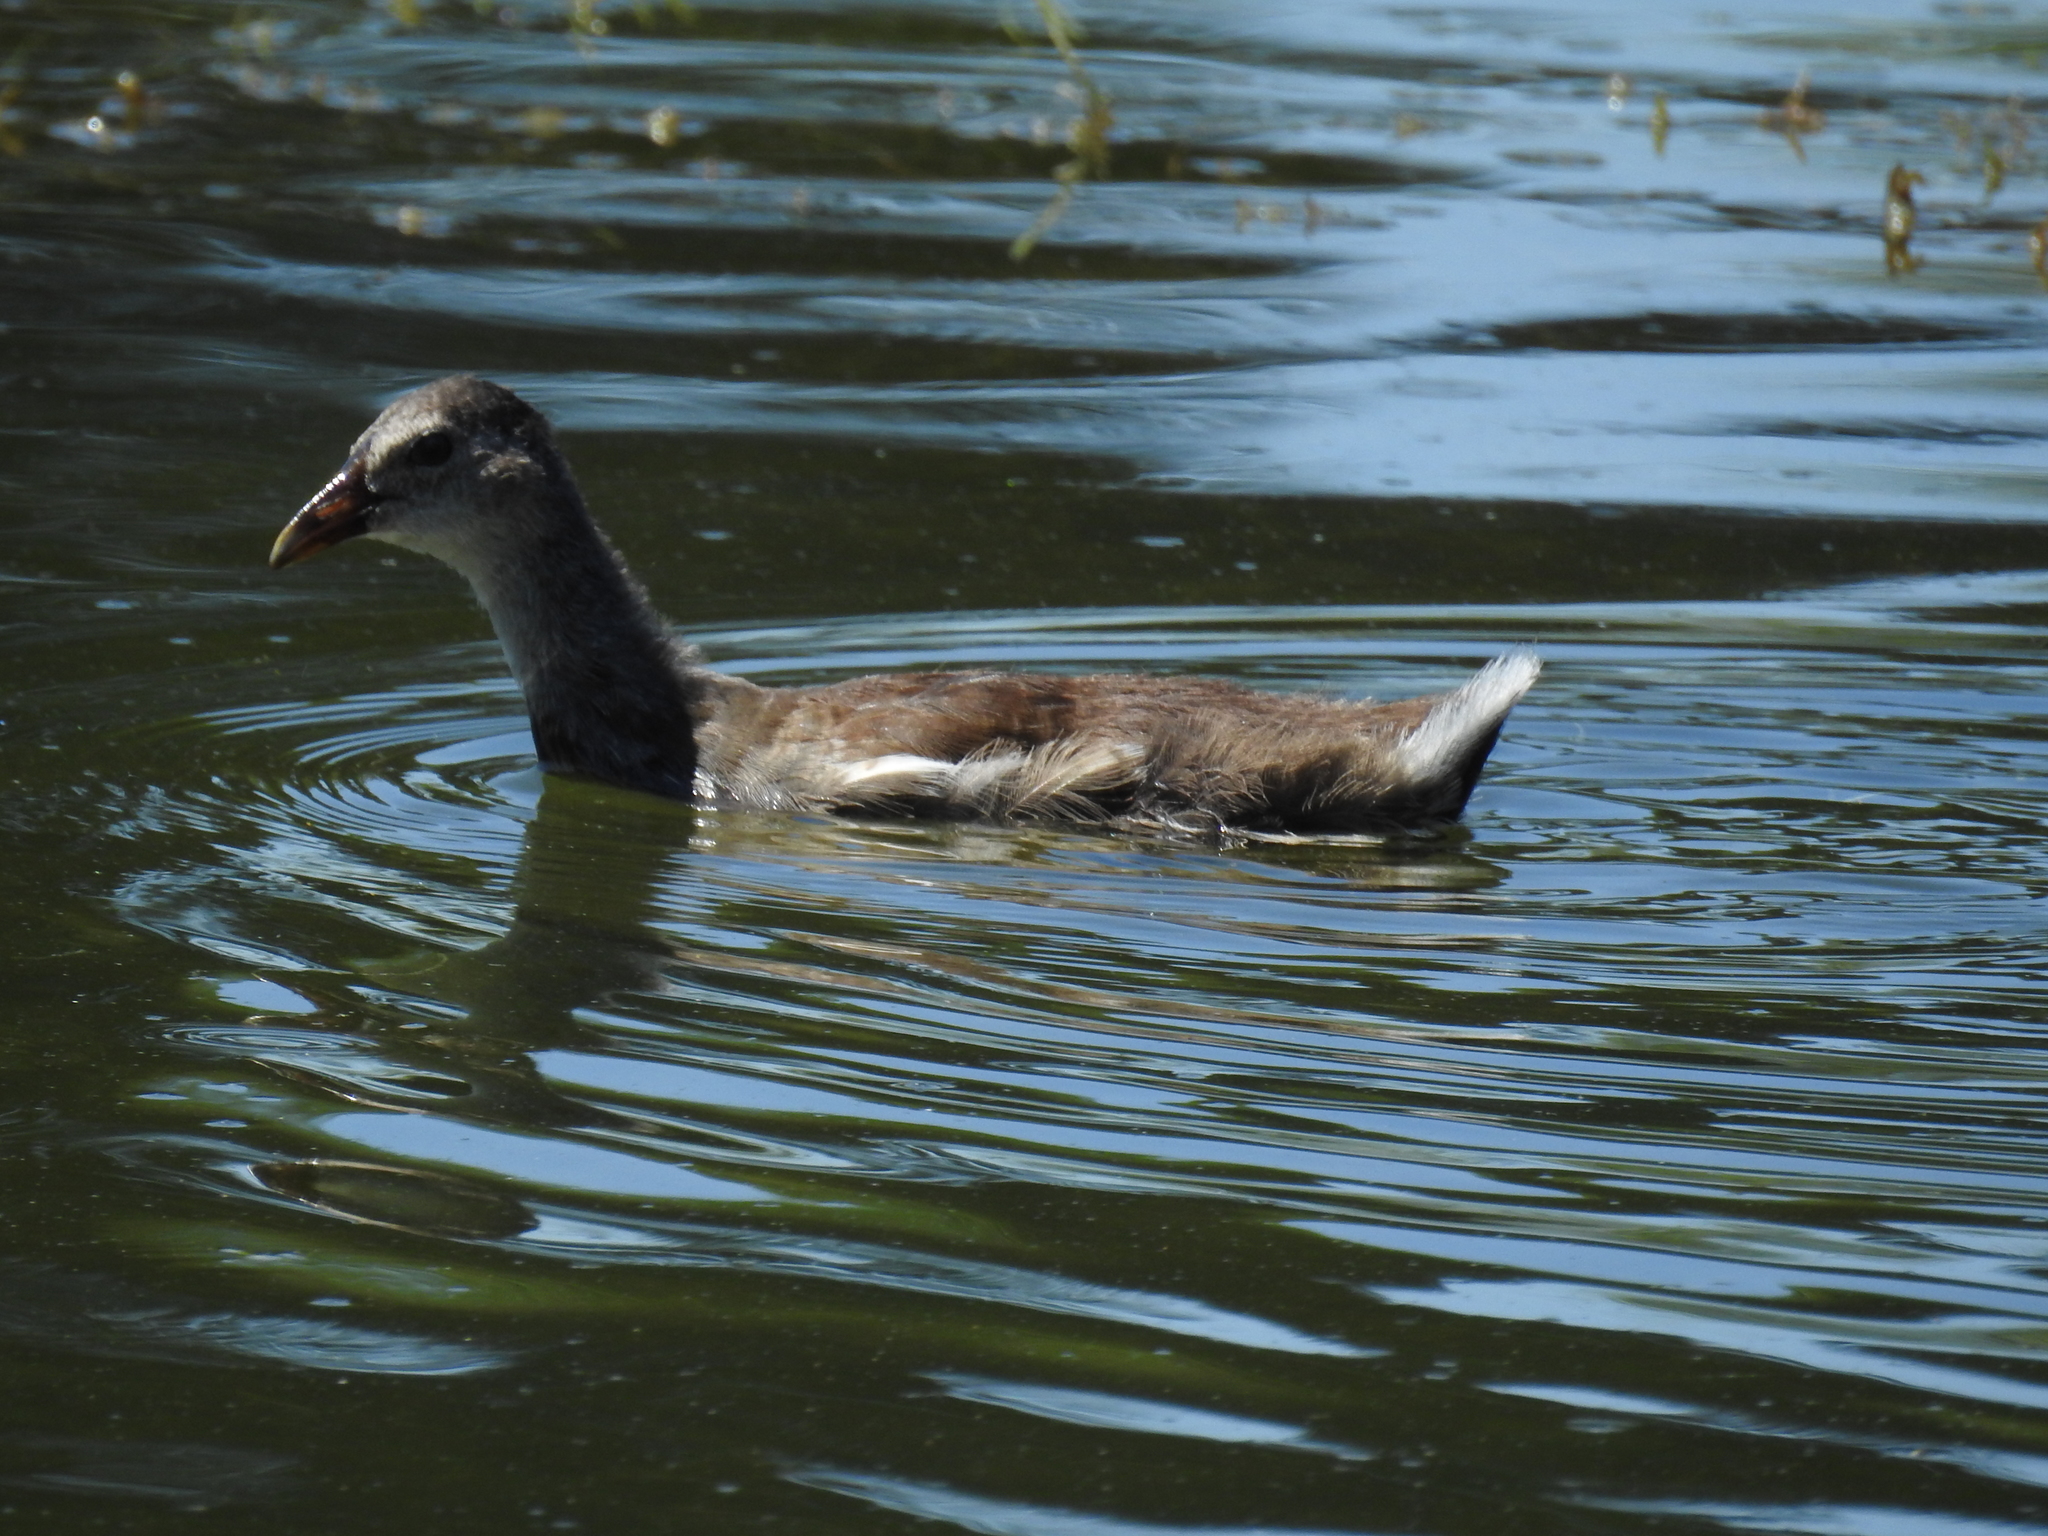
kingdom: Animalia
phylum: Chordata
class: Aves
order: Gruiformes
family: Rallidae
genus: Gallinula
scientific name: Gallinula chloropus
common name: Common moorhen
